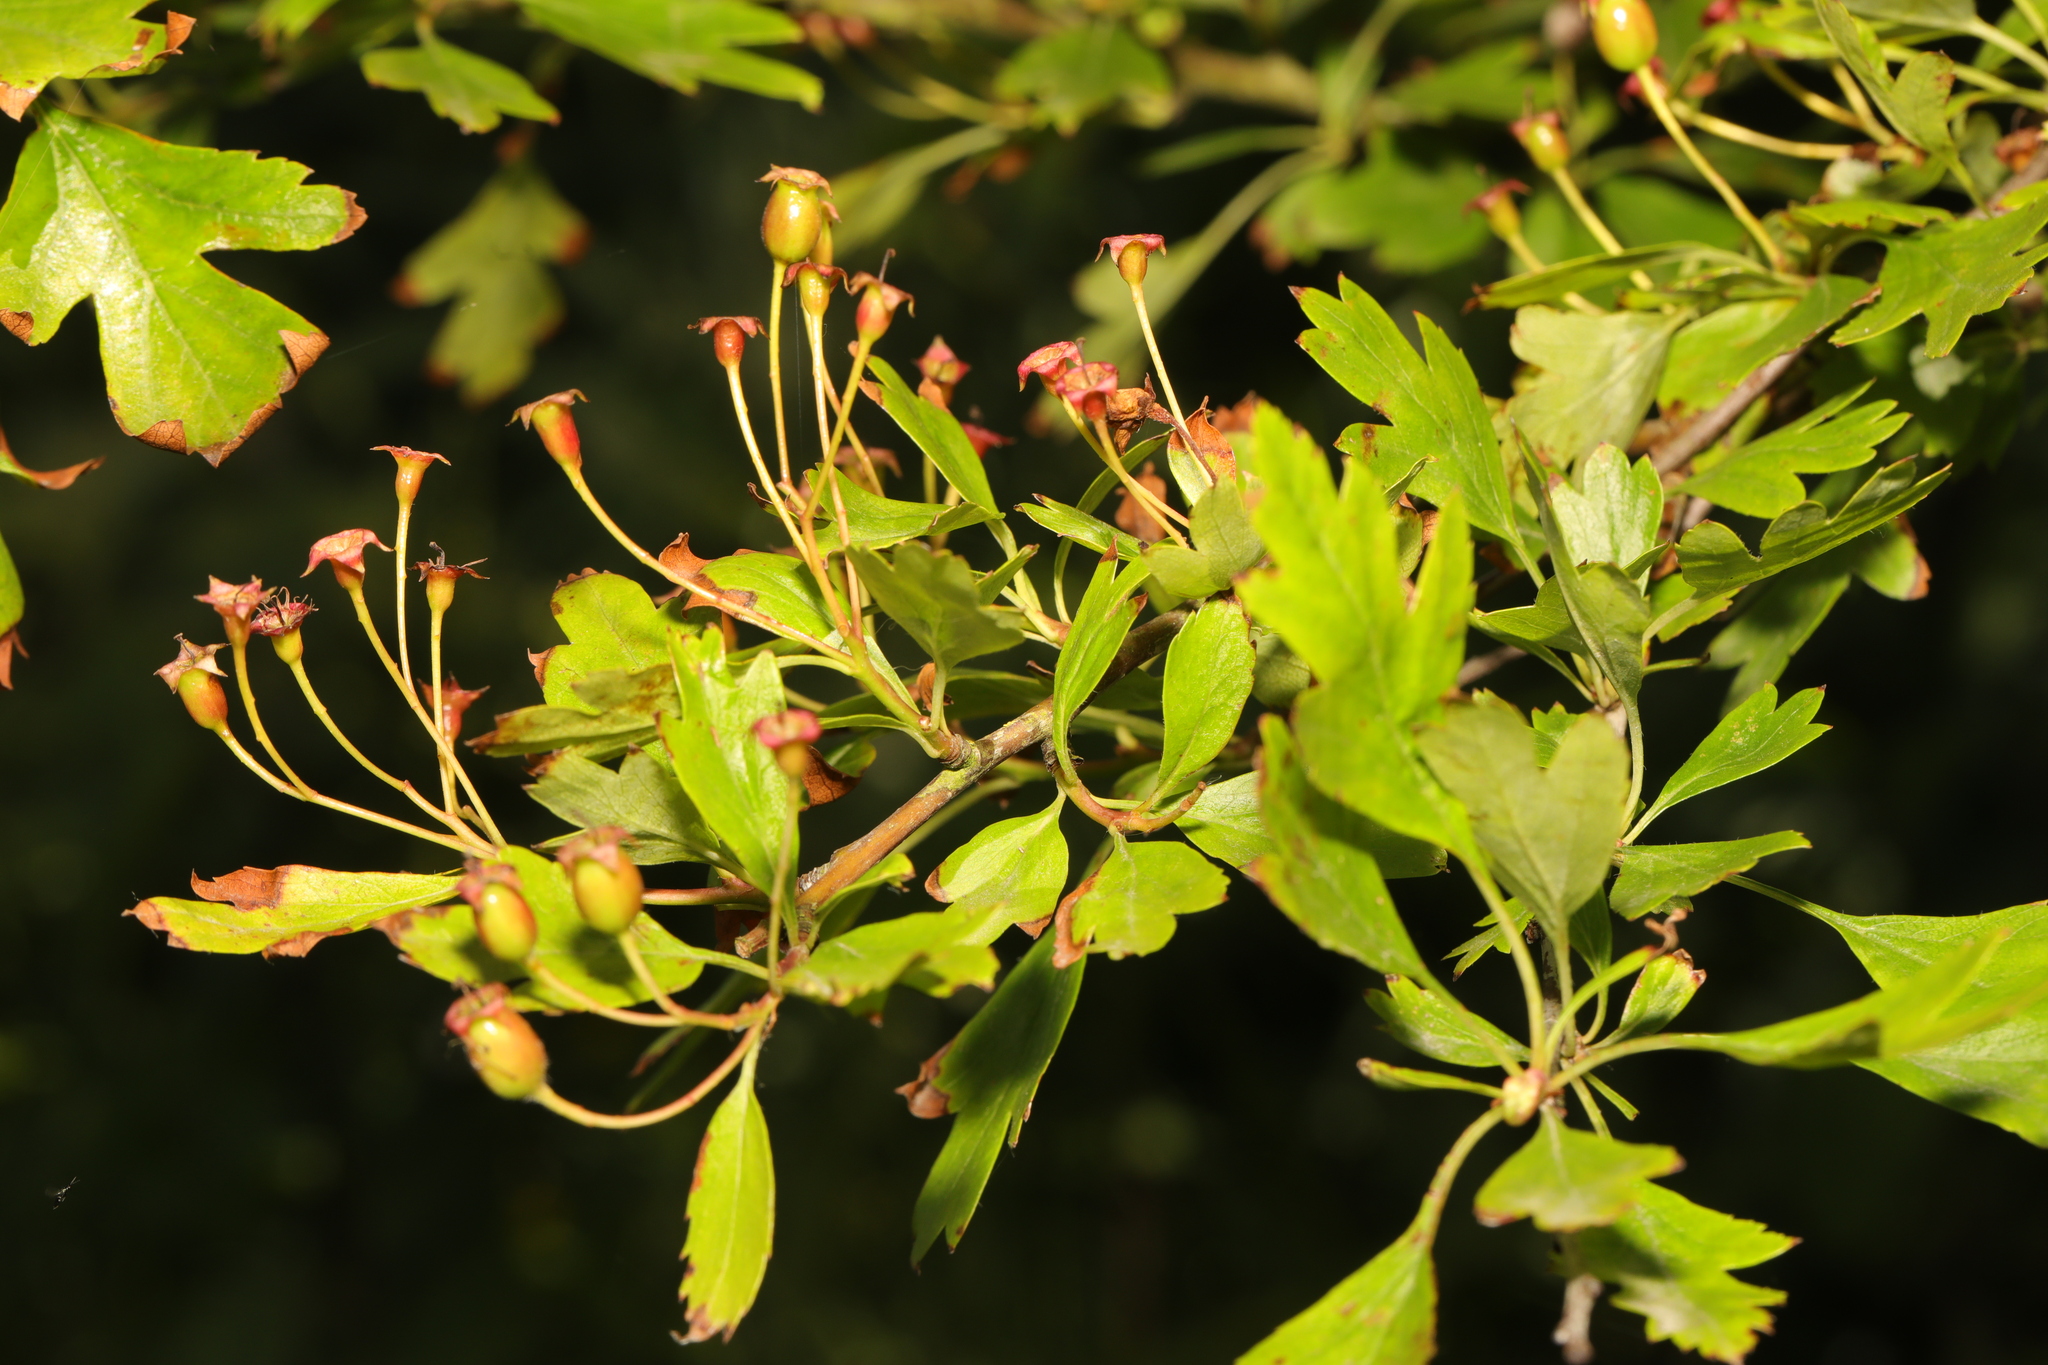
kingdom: Plantae
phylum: Tracheophyta
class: Magnoliopsida
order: Rosales
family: Rosaceae
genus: Crataegus
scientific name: Crataegus monogyna
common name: Hawthorn
